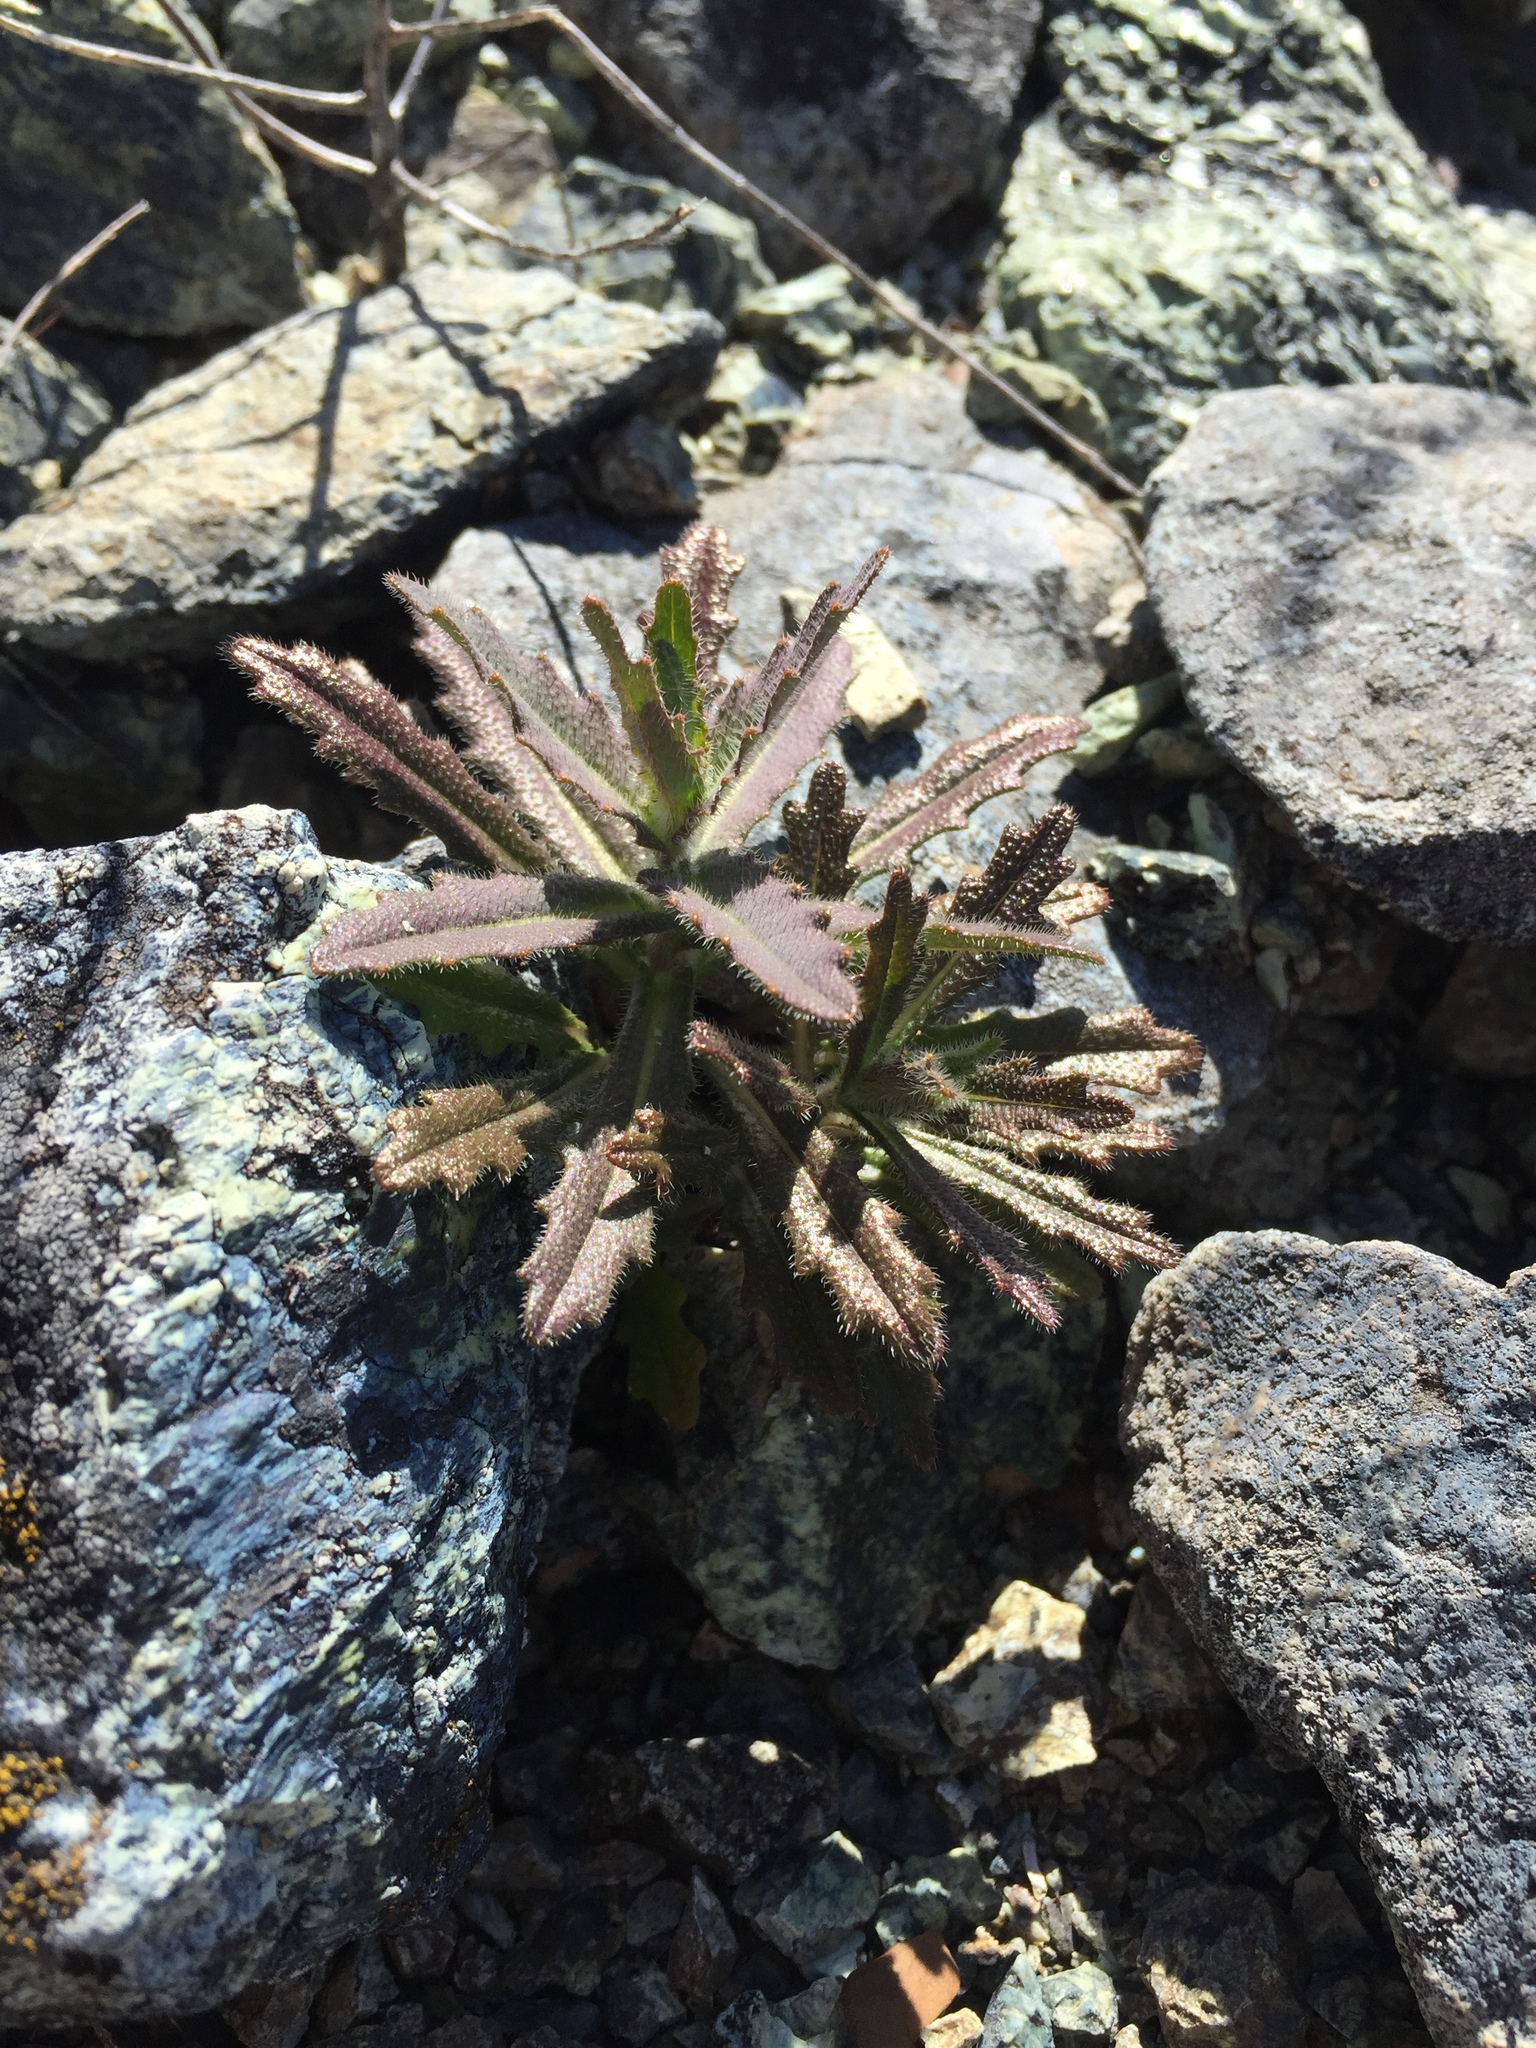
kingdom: Plantae
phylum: Tracheophyta
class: Magnoliopsida
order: Brassicales
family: Brassicaceae
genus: Streptanthus
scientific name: Streptanthus glandulosus
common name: Jewel-flower
